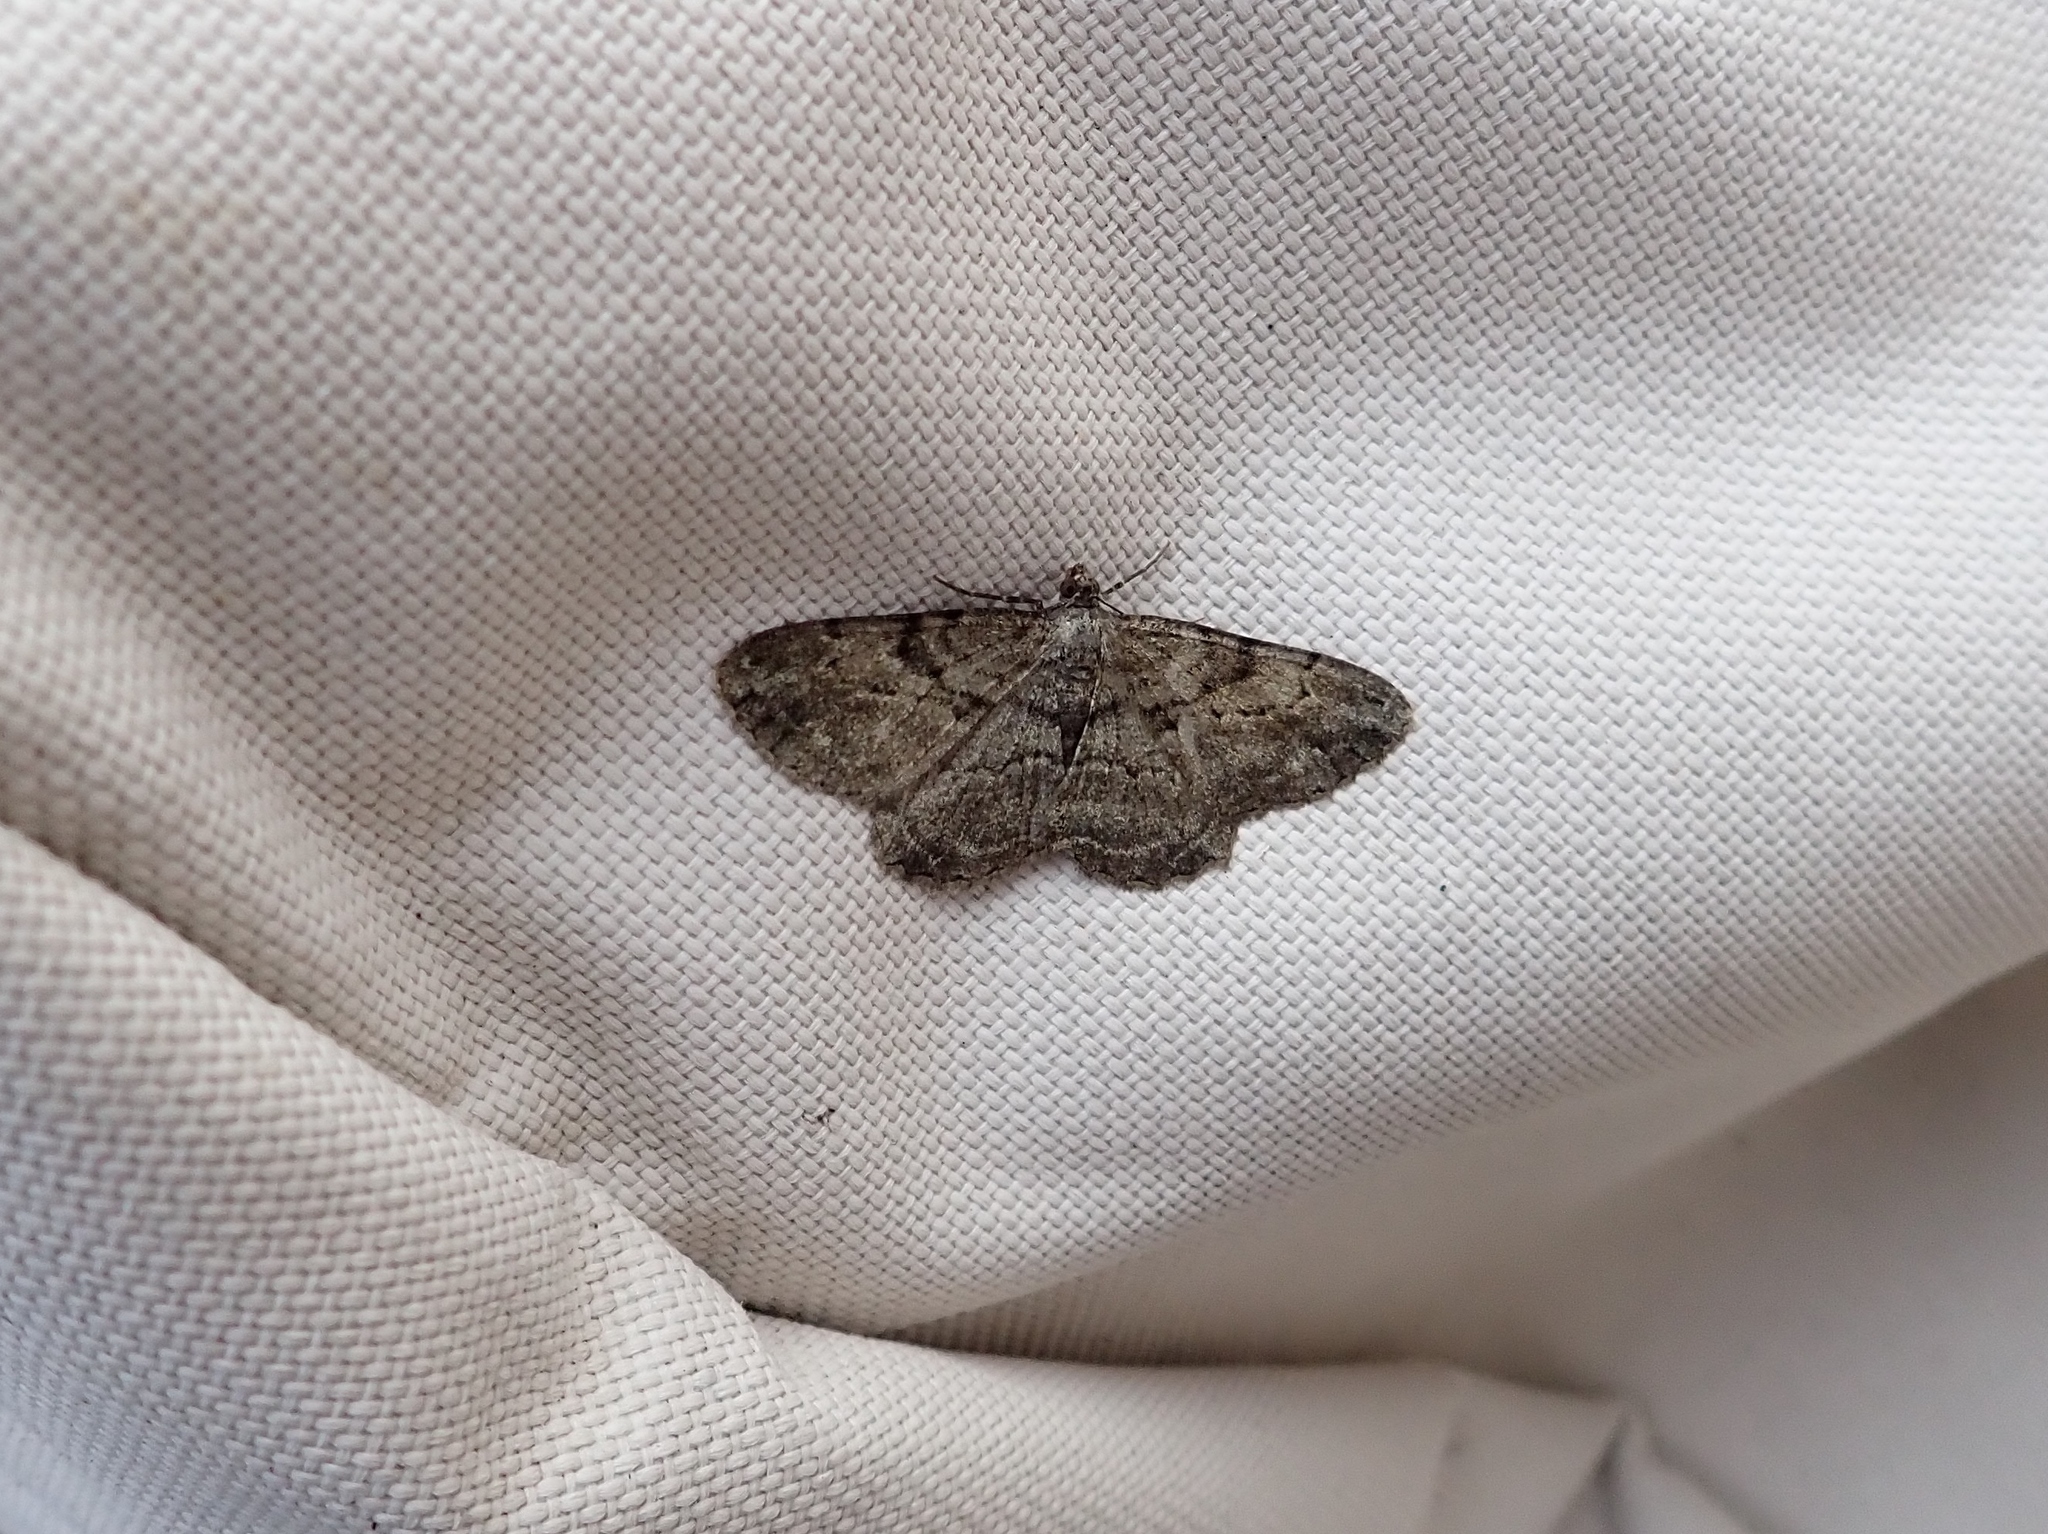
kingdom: Animalia
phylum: Arthropoda
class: Insecta
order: Lepidoptera
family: Geometridae
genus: Peribatodes
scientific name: Peribatodes rhomboidaria
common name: Willow beauty
